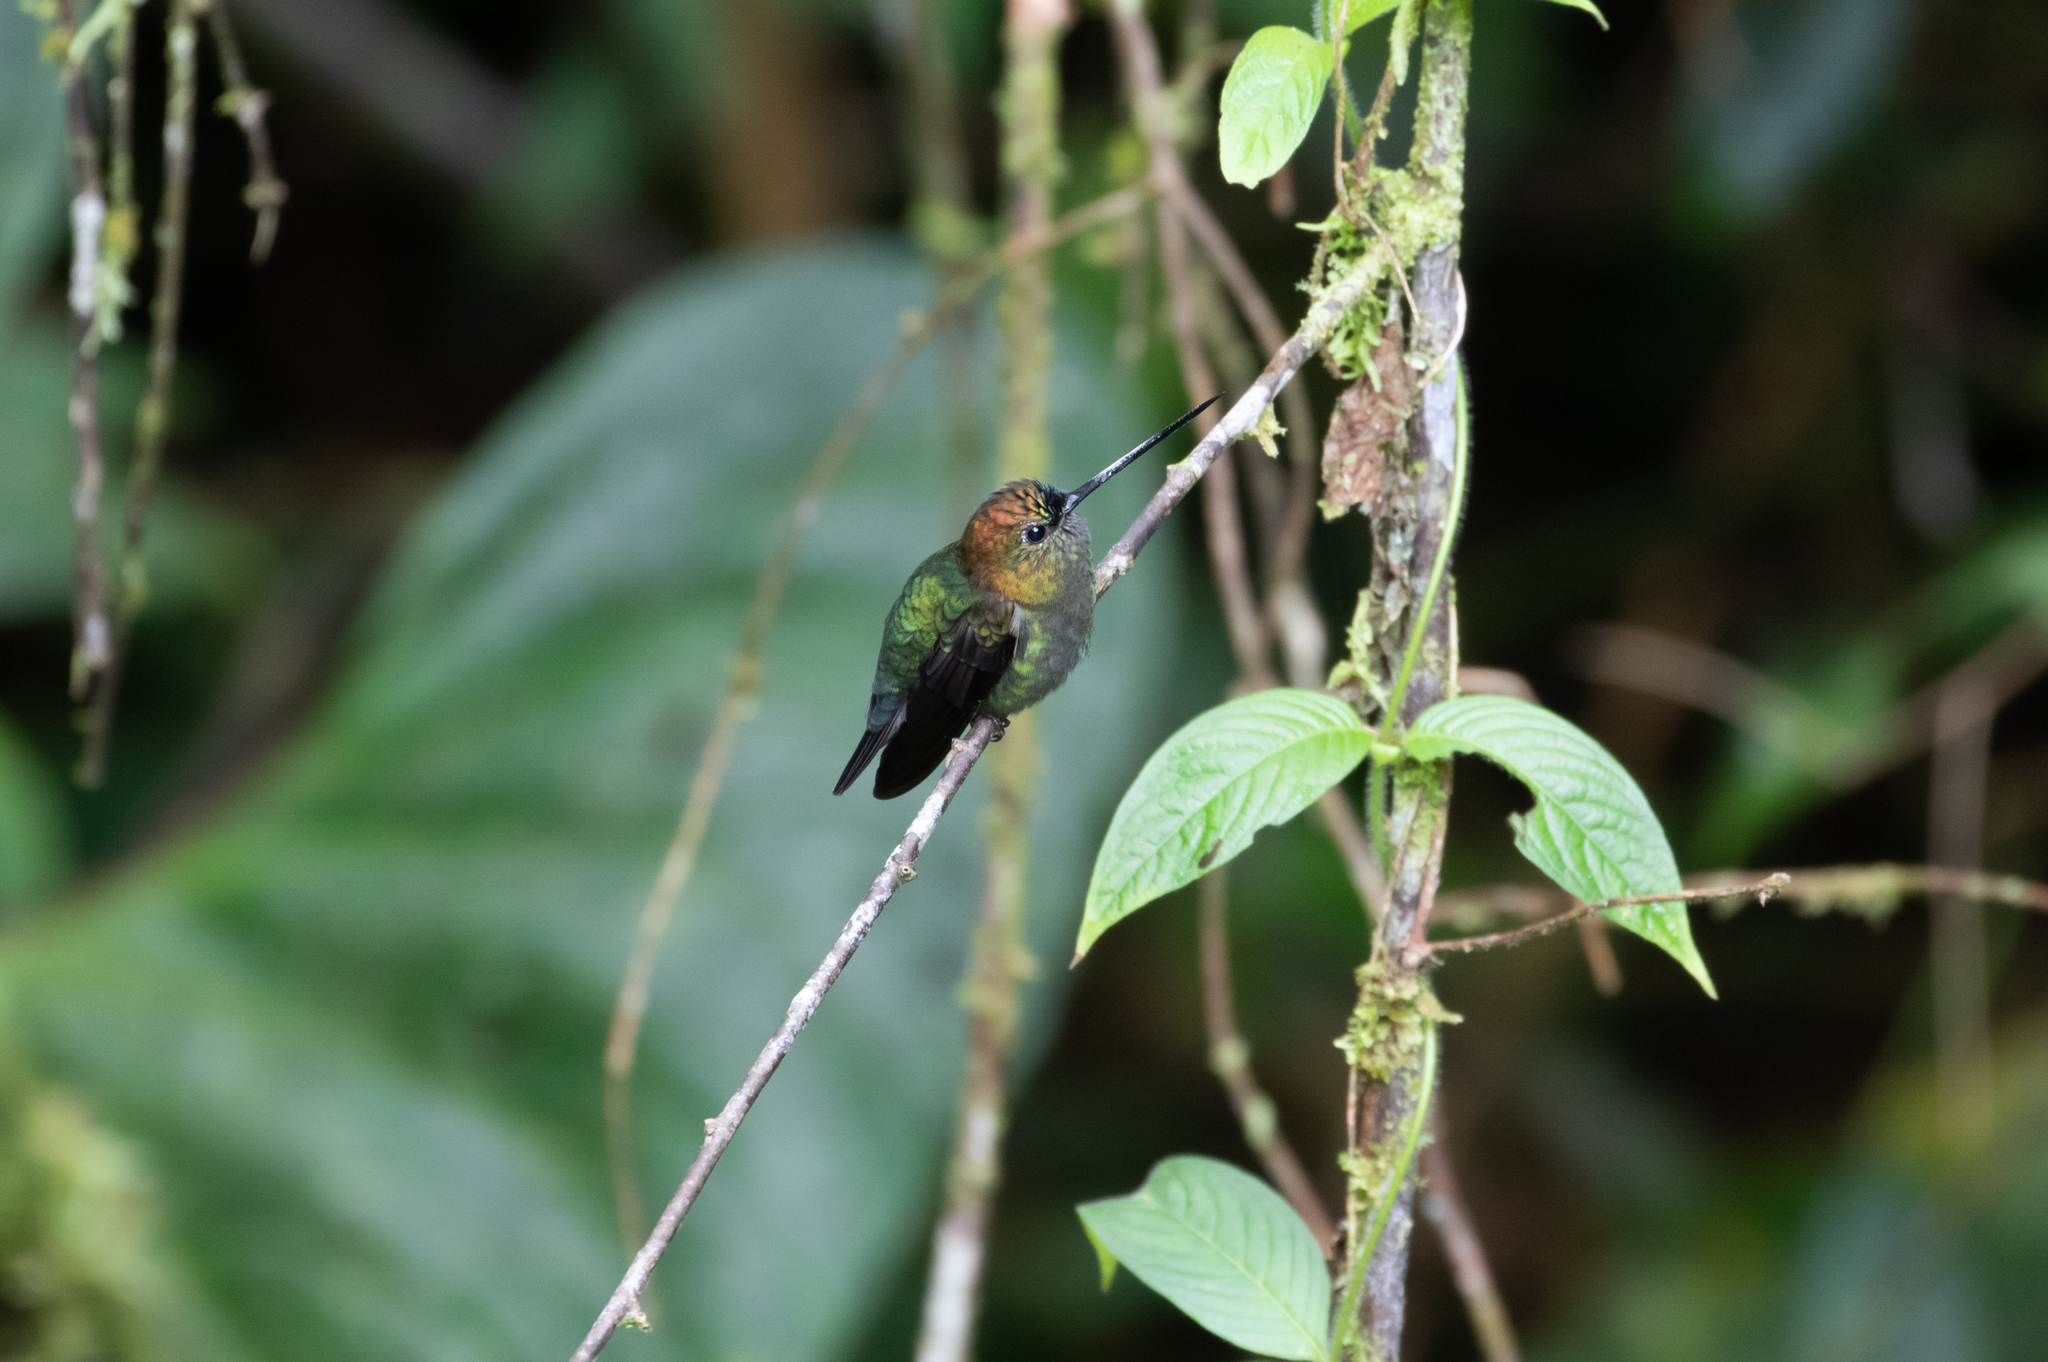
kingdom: Animalia
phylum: Chordata
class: Aves
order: Apodiformes
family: Trochilidae
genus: Doryfera
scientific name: Doryfera ludovicae
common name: Green-fronted lancebill
